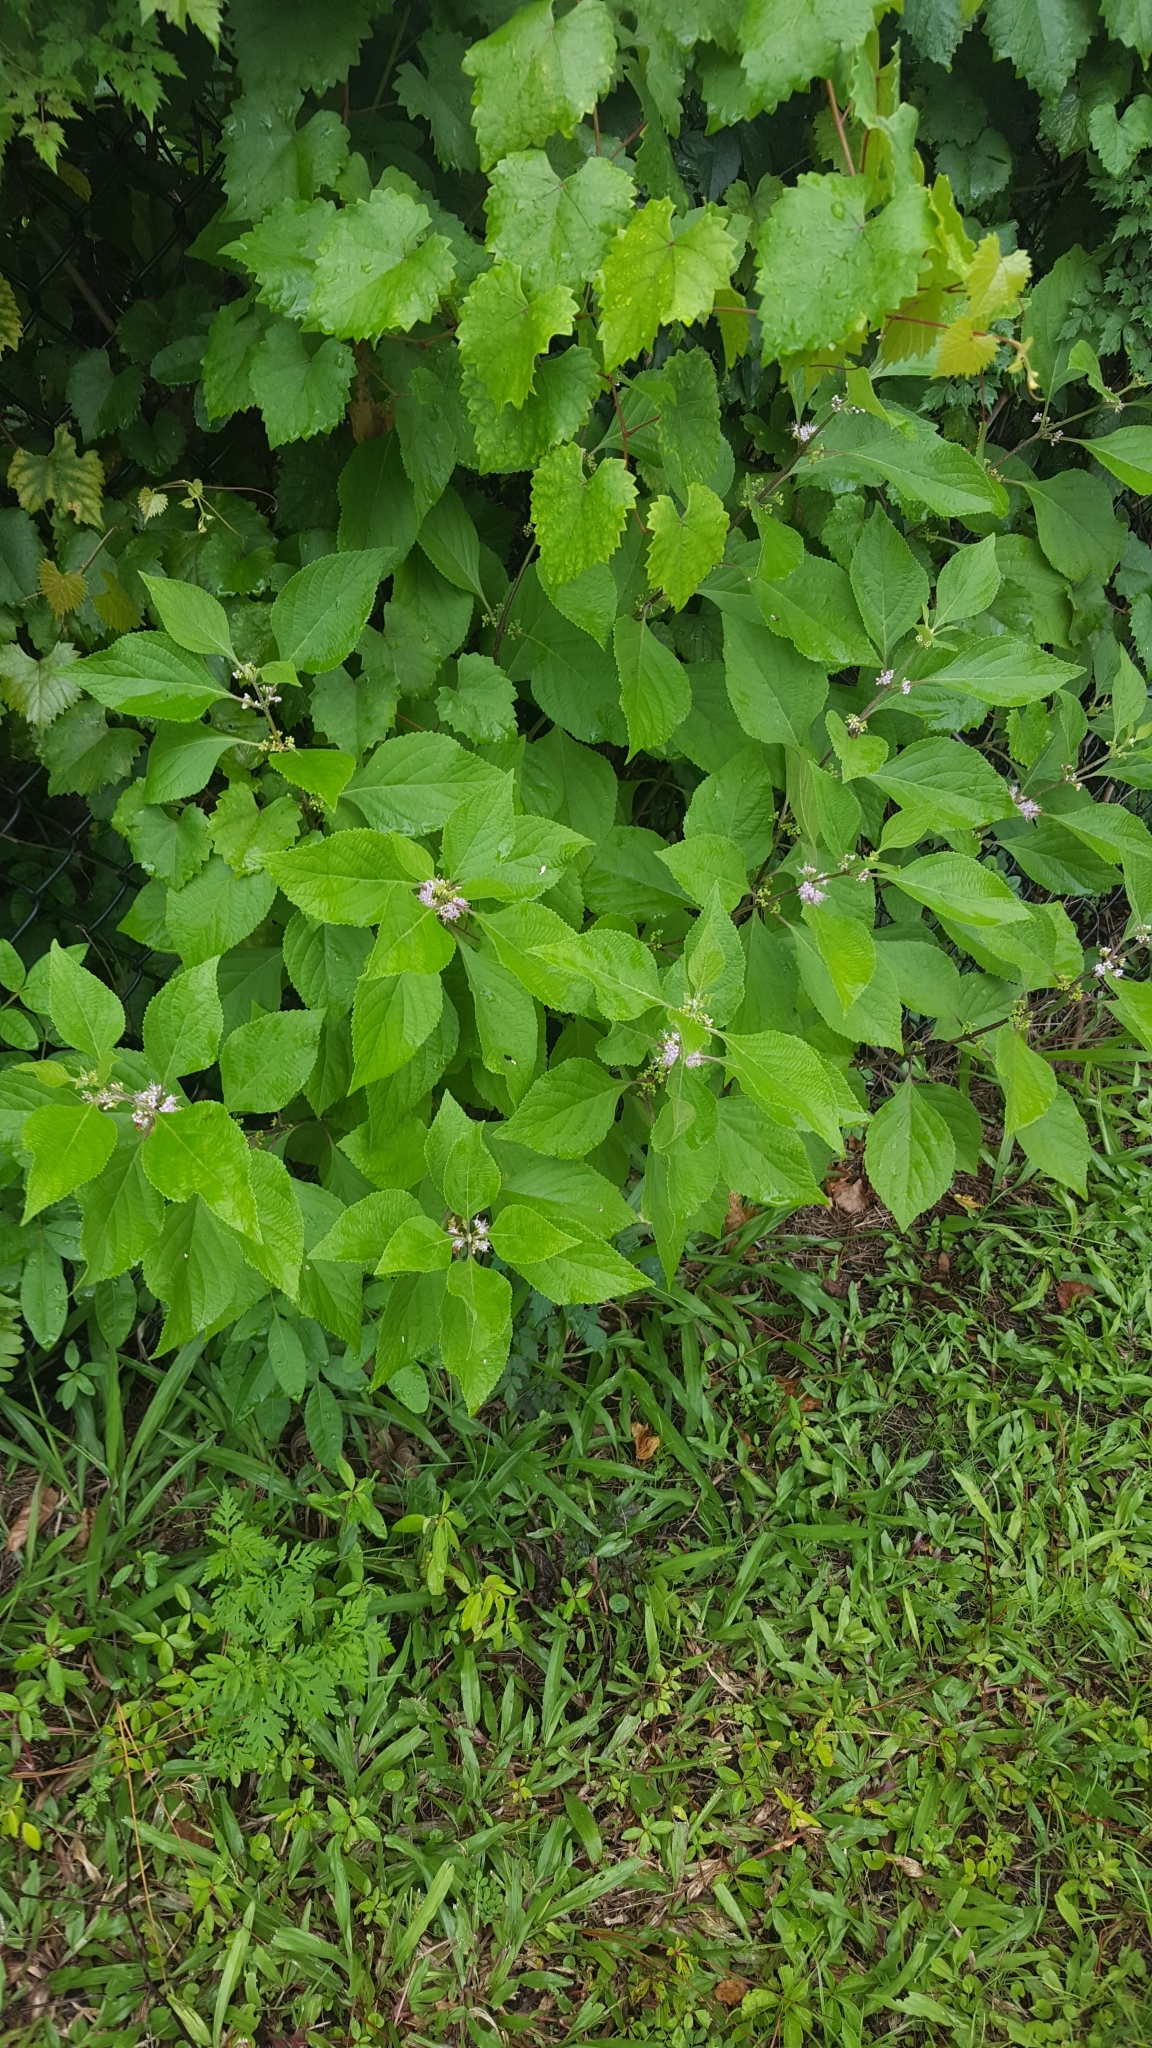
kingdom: Plantae
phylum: Tracheophyta
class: Magnoliopsida
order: Lamiales
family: Lamiaceae
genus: Callicarpa
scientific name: Callicarpa americana
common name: American beautyberry
